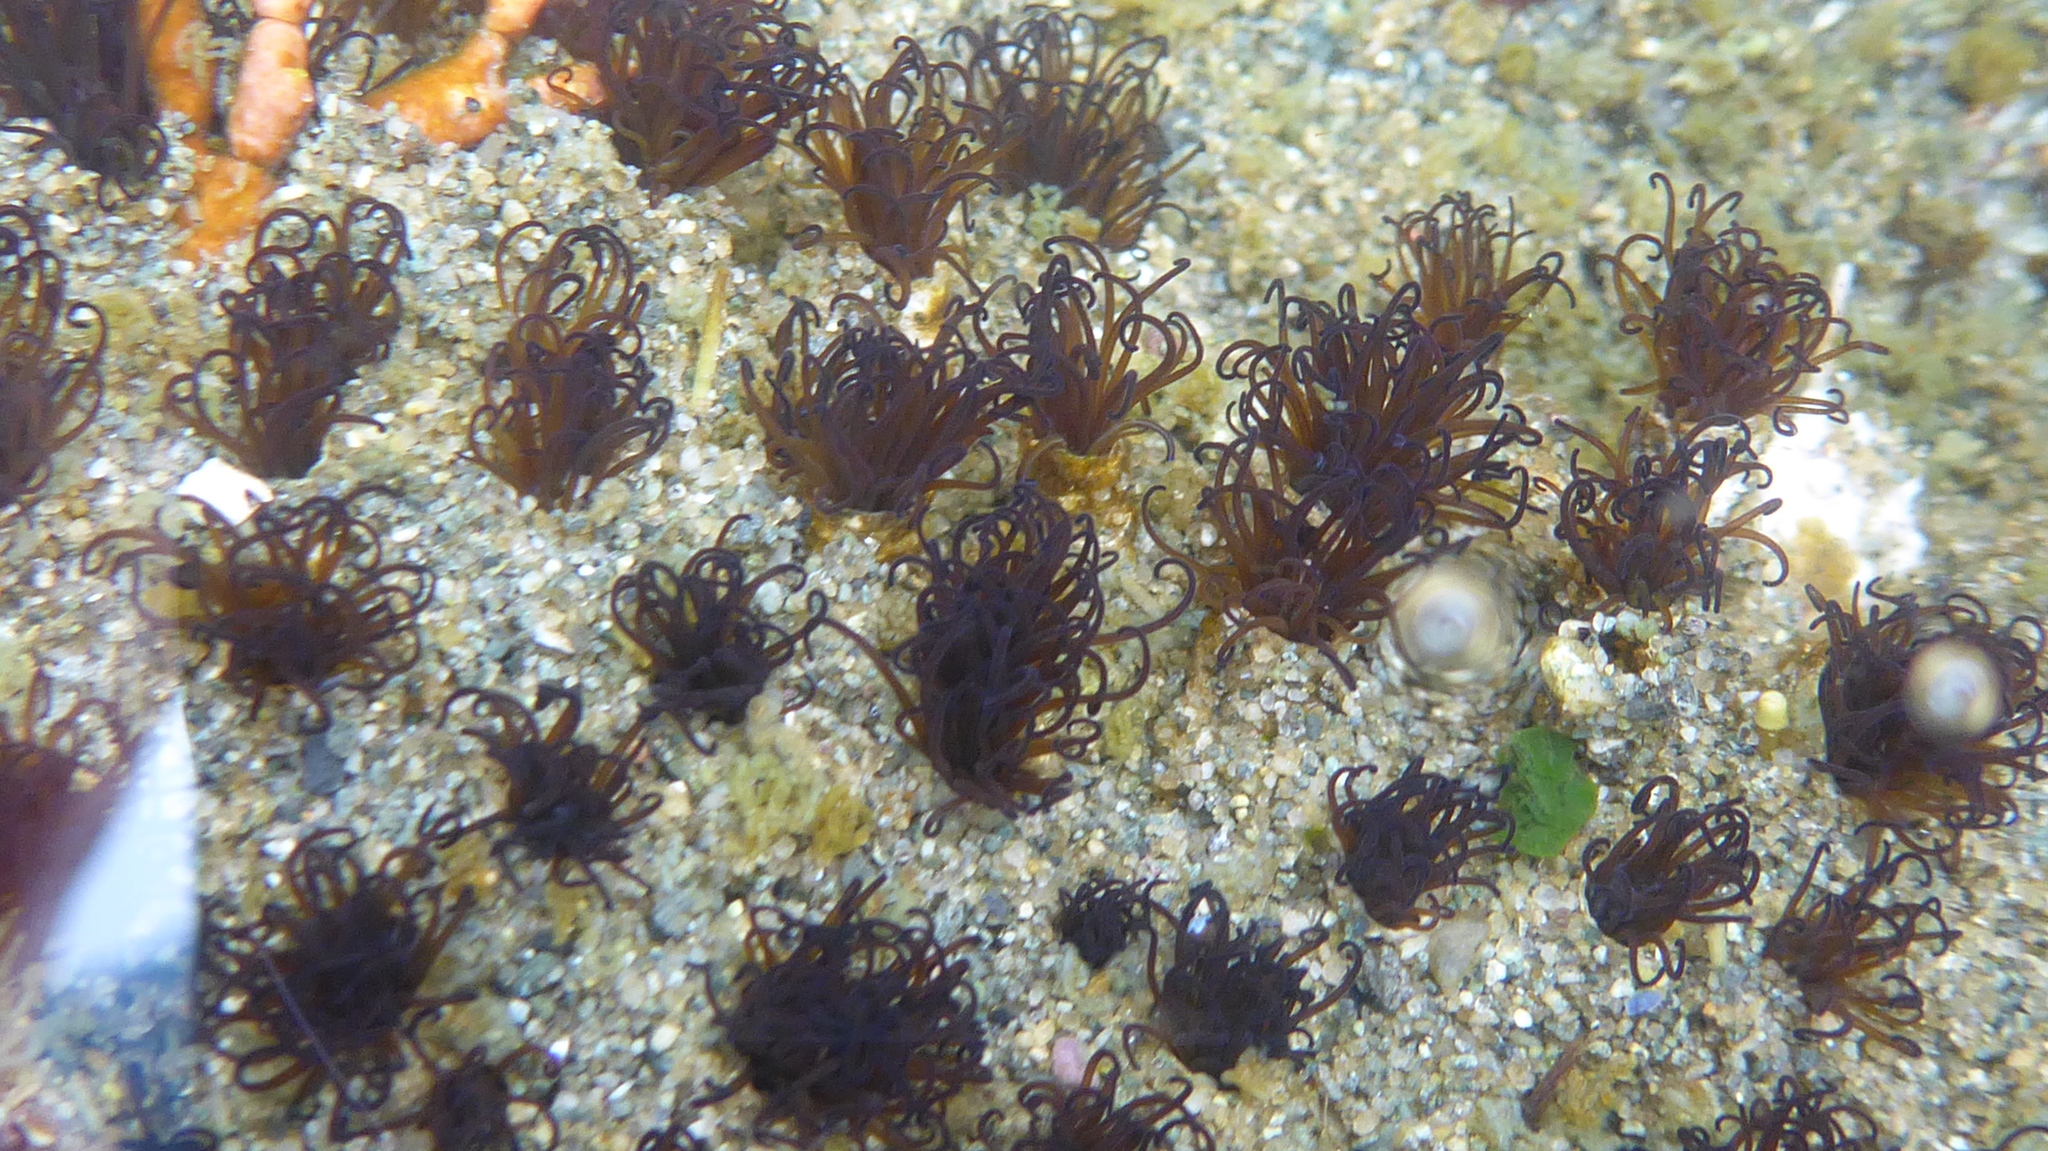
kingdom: Animalia
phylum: Annelida
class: Polychaeta
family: Cirratulidae
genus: Dodecaceria
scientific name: Dodecaceria pacifica
